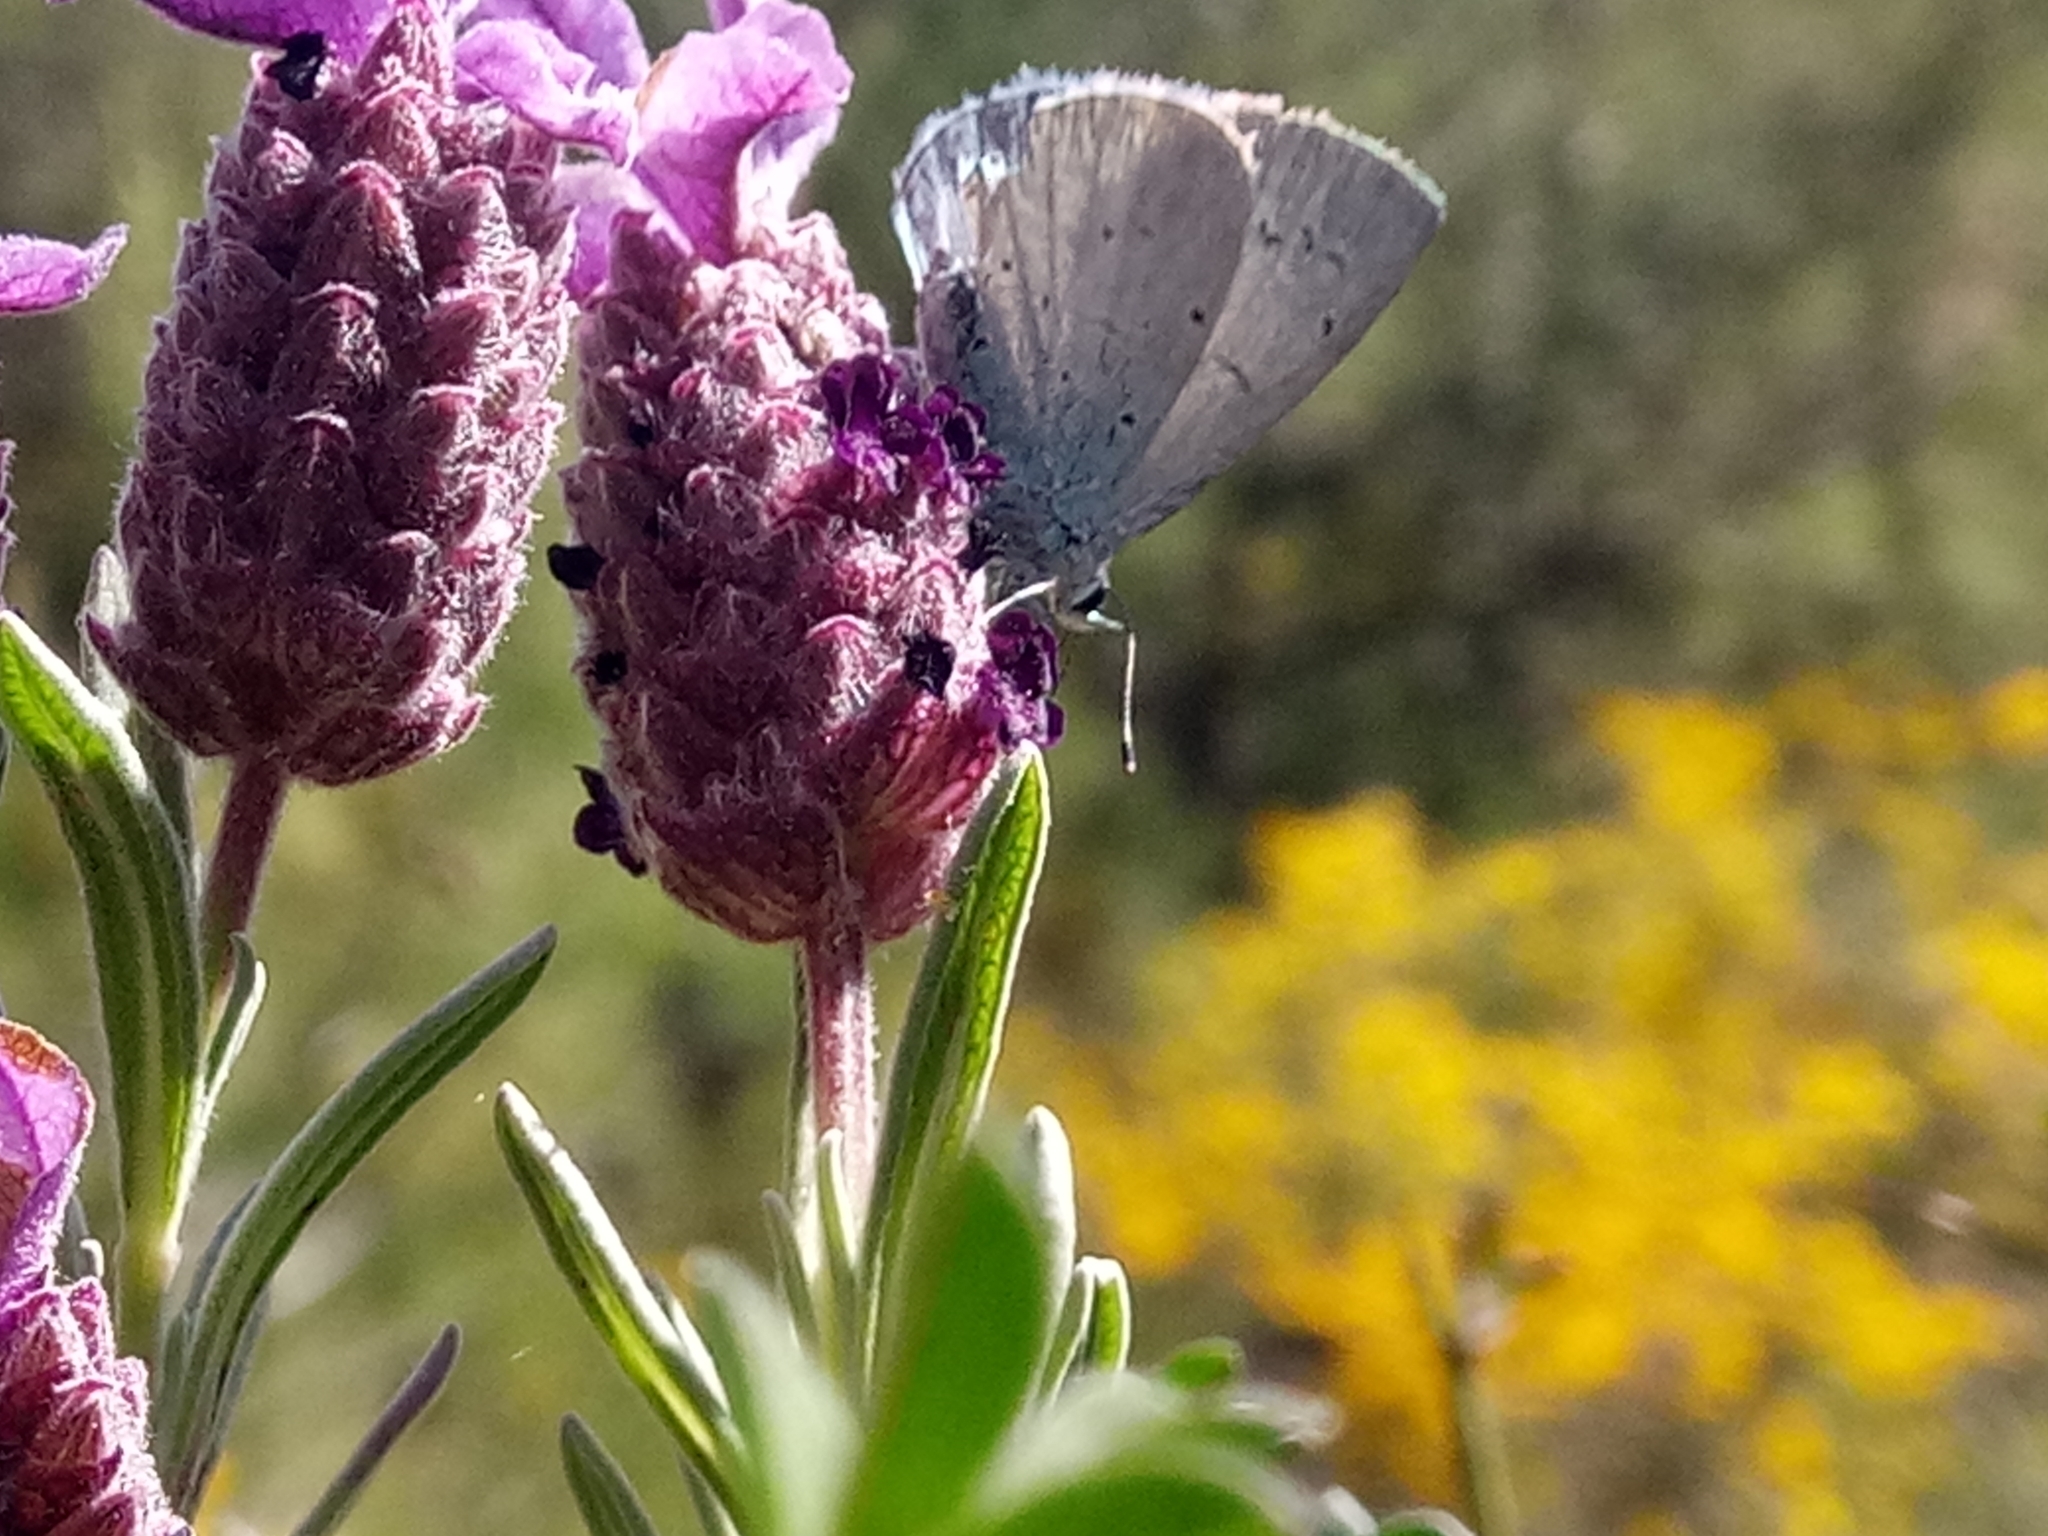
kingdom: Animalia
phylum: Arthropoda
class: Insecta
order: Lepidoptera
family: Lycaenidae
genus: Celastrina
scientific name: Celastrina argiolus
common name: Holly blue
